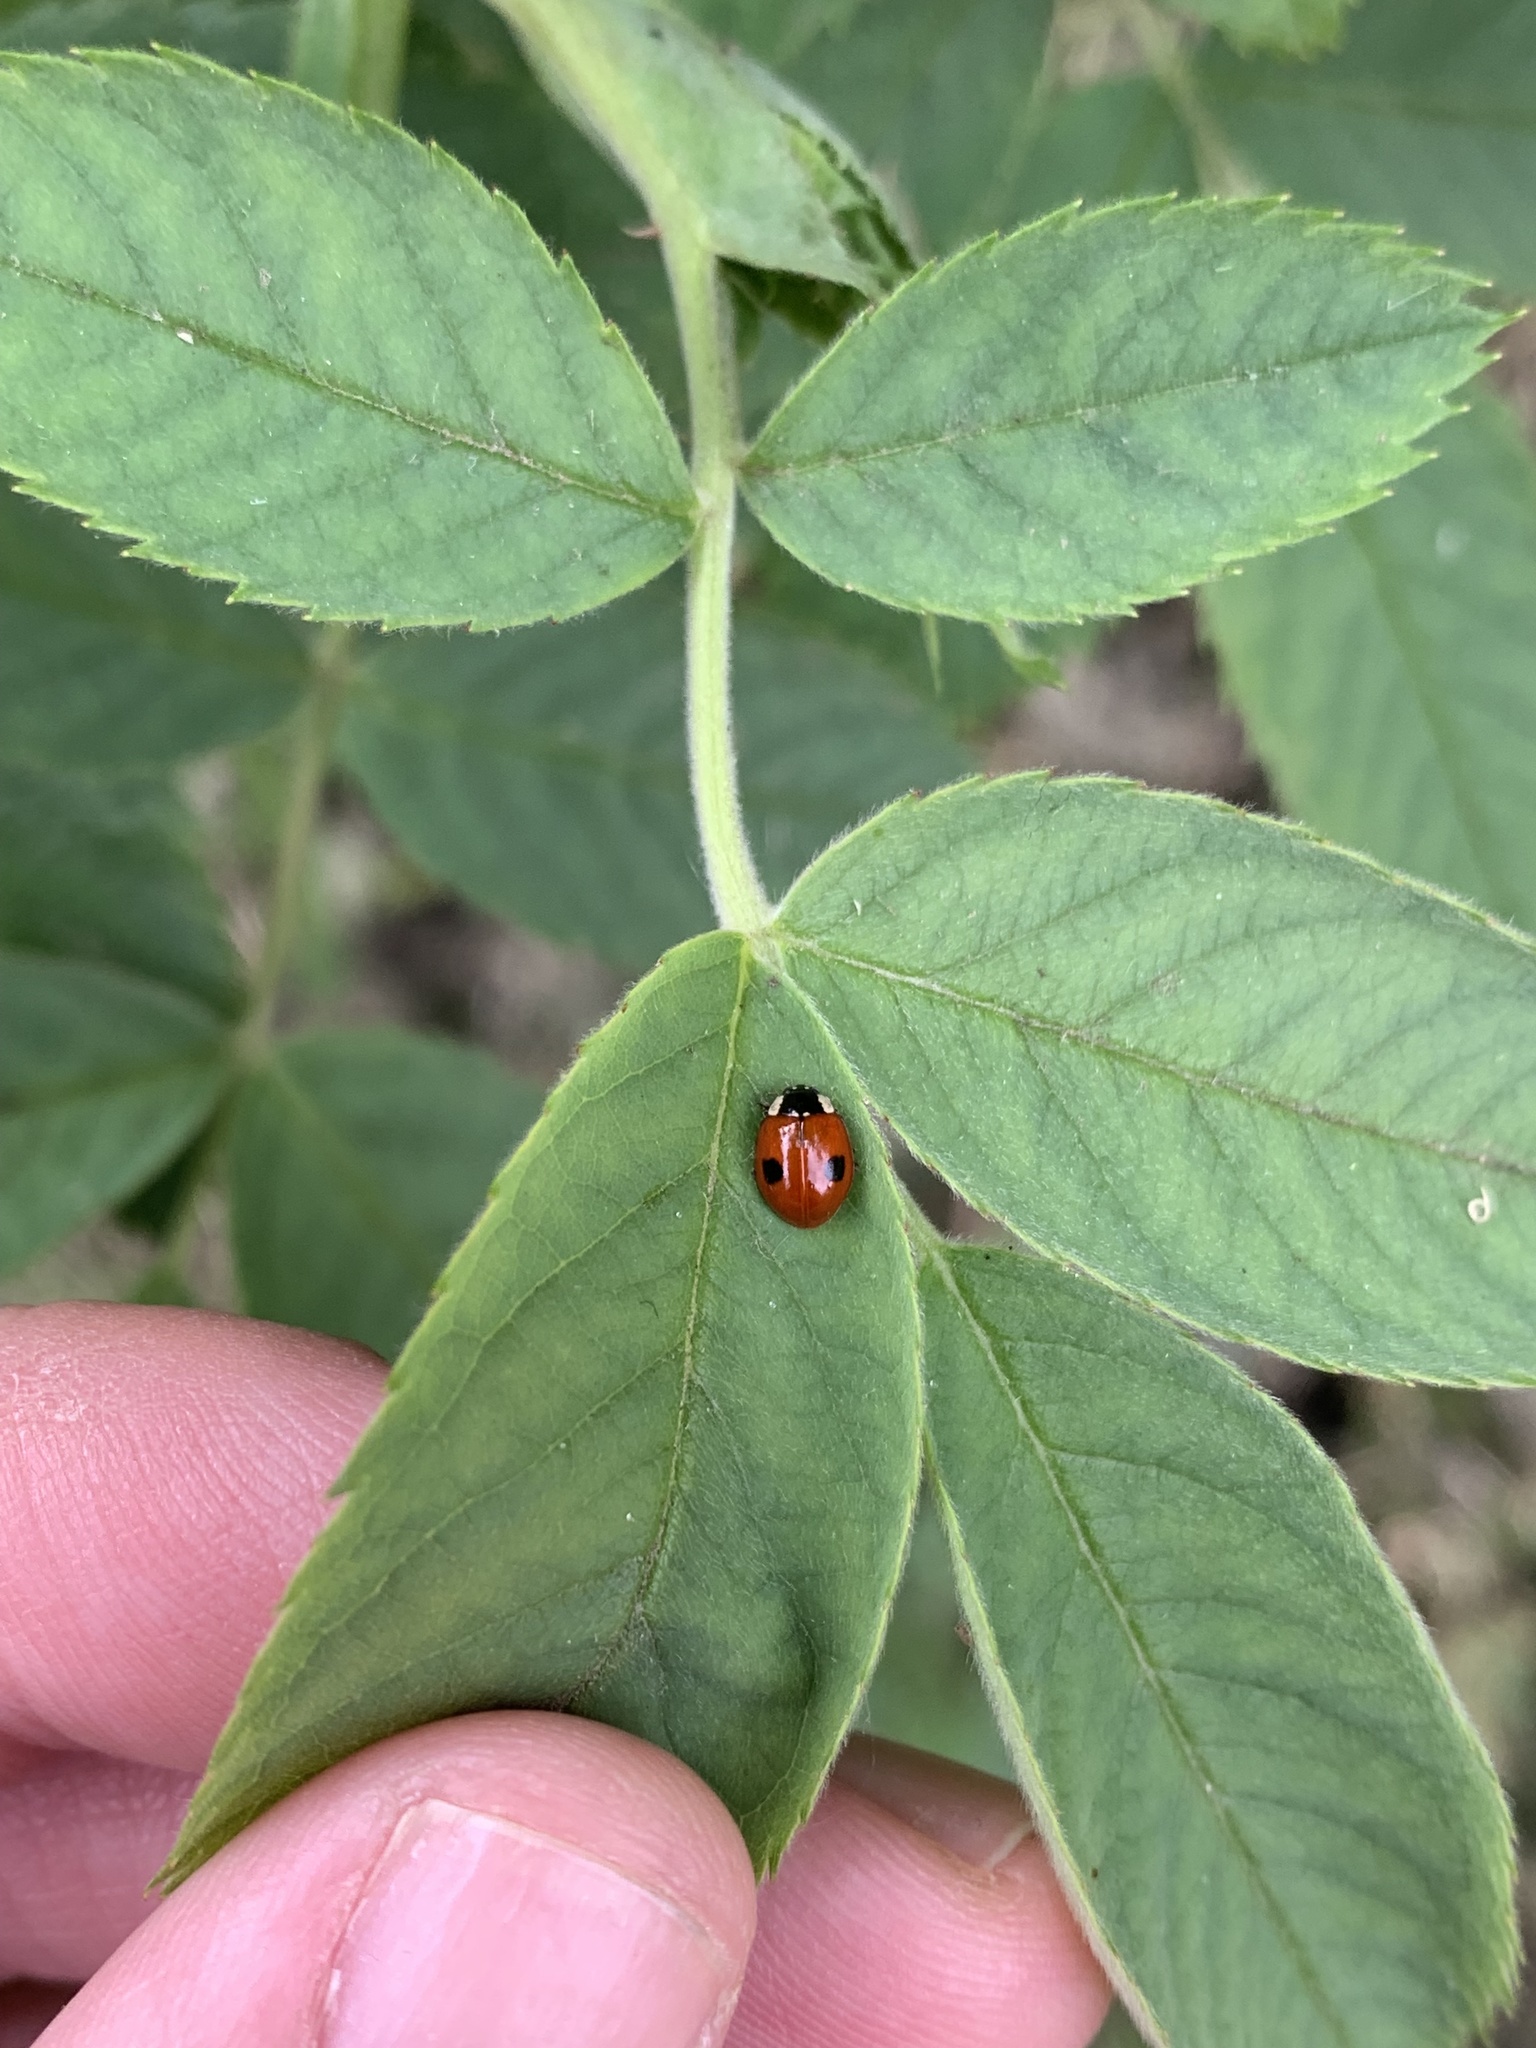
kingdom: Animalia
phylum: Arthropoda
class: Insecta
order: Coleoptera
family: Coccinellidae
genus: Adalia
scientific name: Adalia bipunctata
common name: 2-spot ladybird
